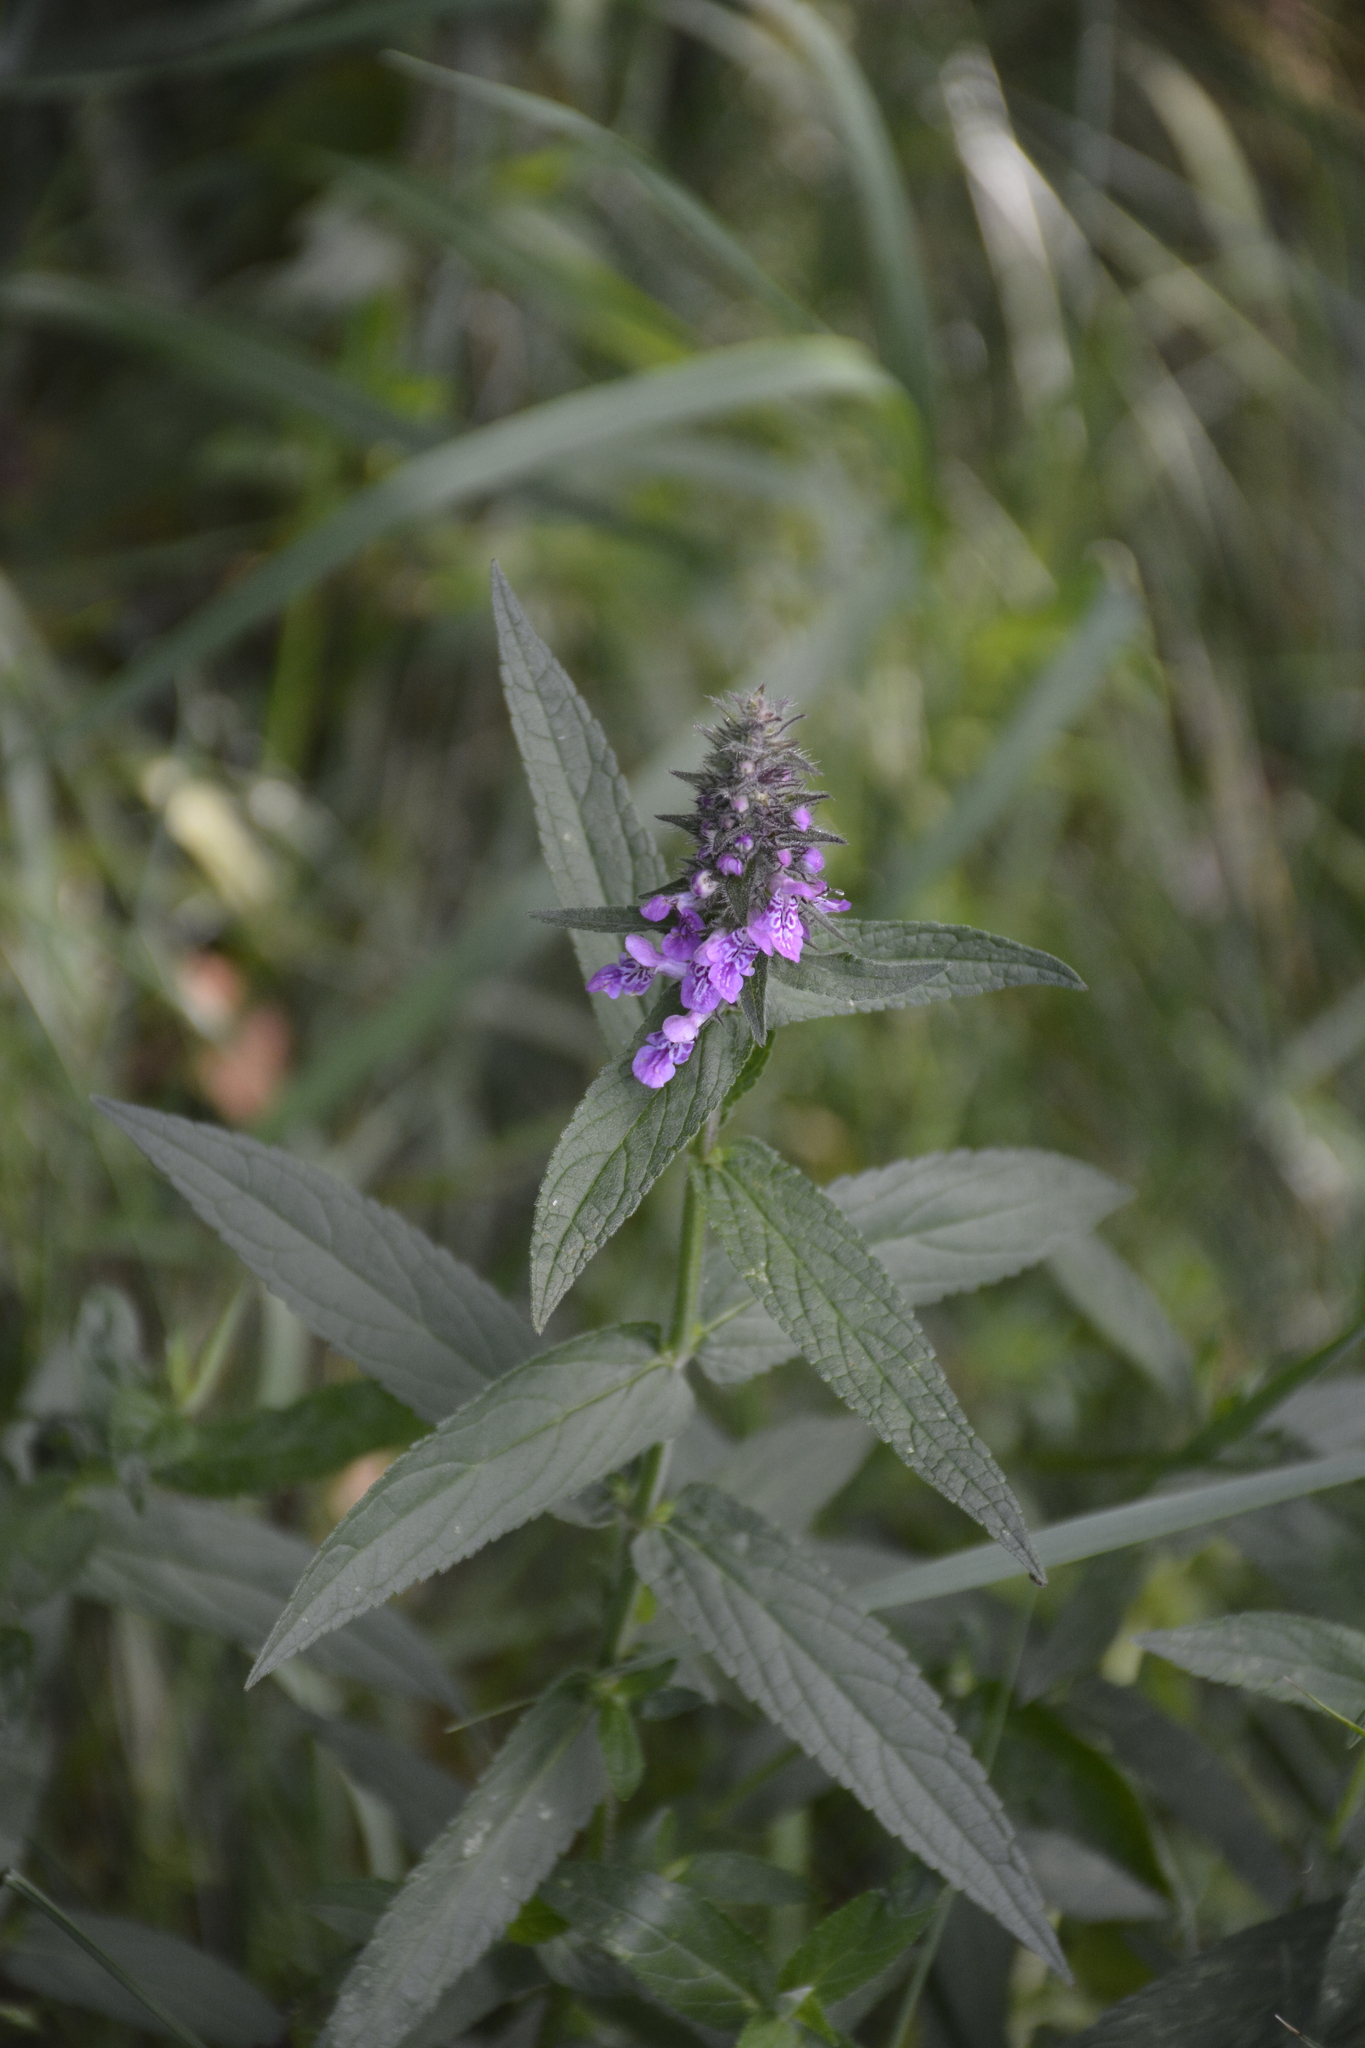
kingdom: Plantae
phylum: Tracheophyta
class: Magnoliopsida
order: Lamiales
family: Lamiaceae
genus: Stachys
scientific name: Stachys palustris
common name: Marsh woundwort
